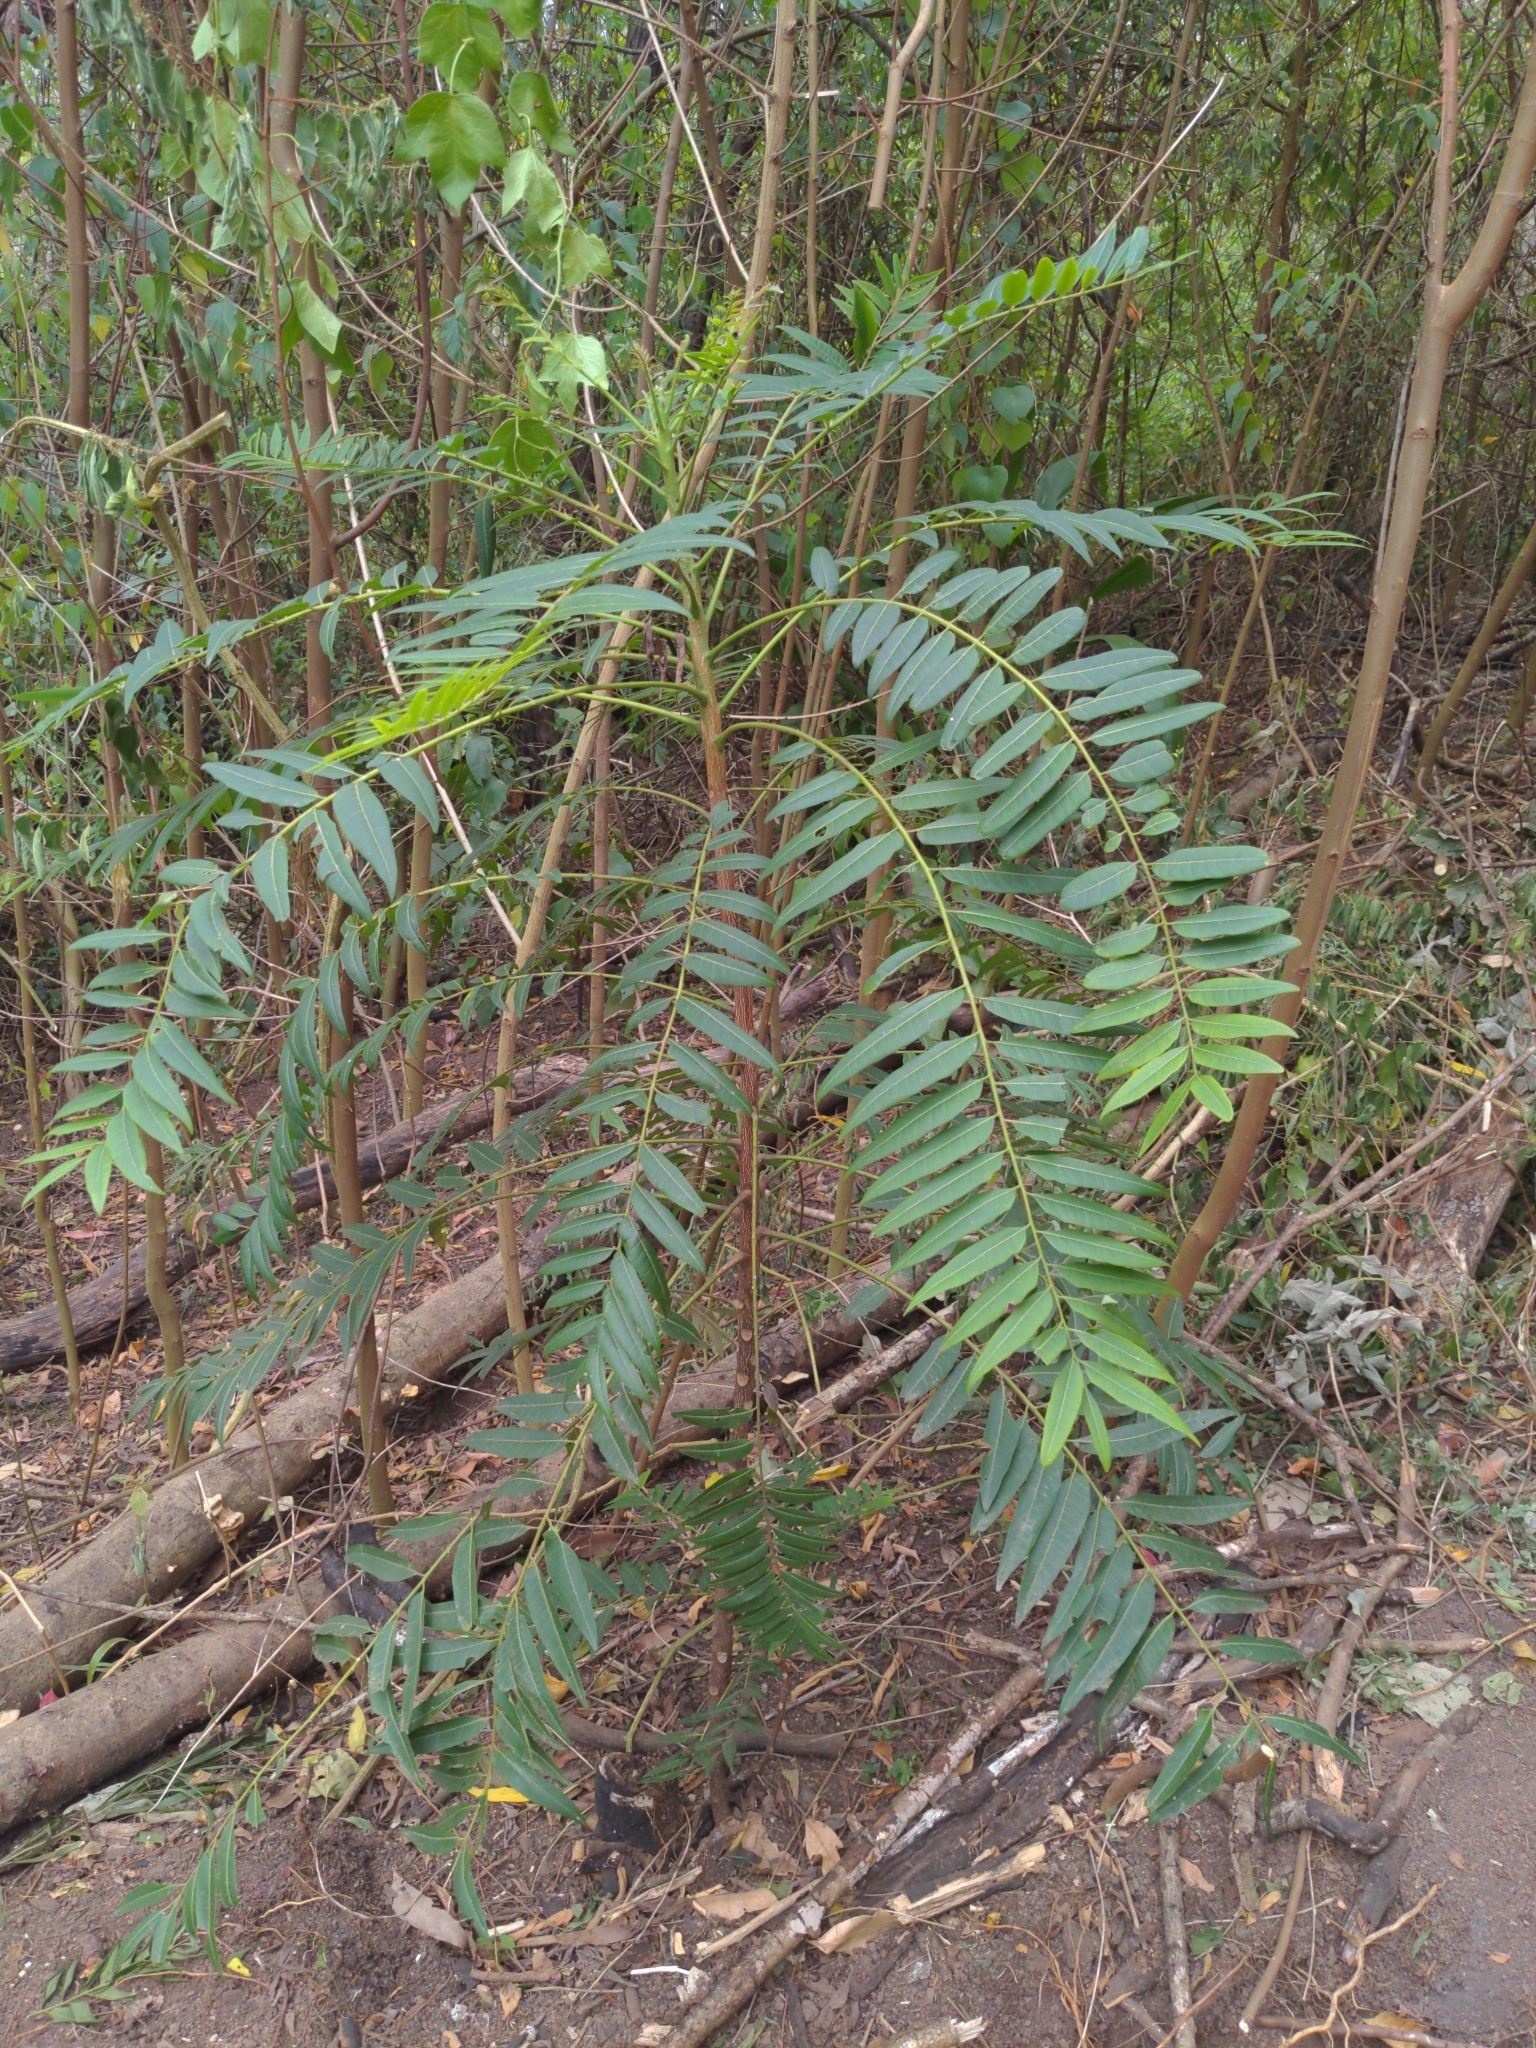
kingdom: Plantae
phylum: Tracheophyta
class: Magnoliopsida
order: Sapindales
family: Simaroubaceae
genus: Ailanthus
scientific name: Ailanthus triphysa
